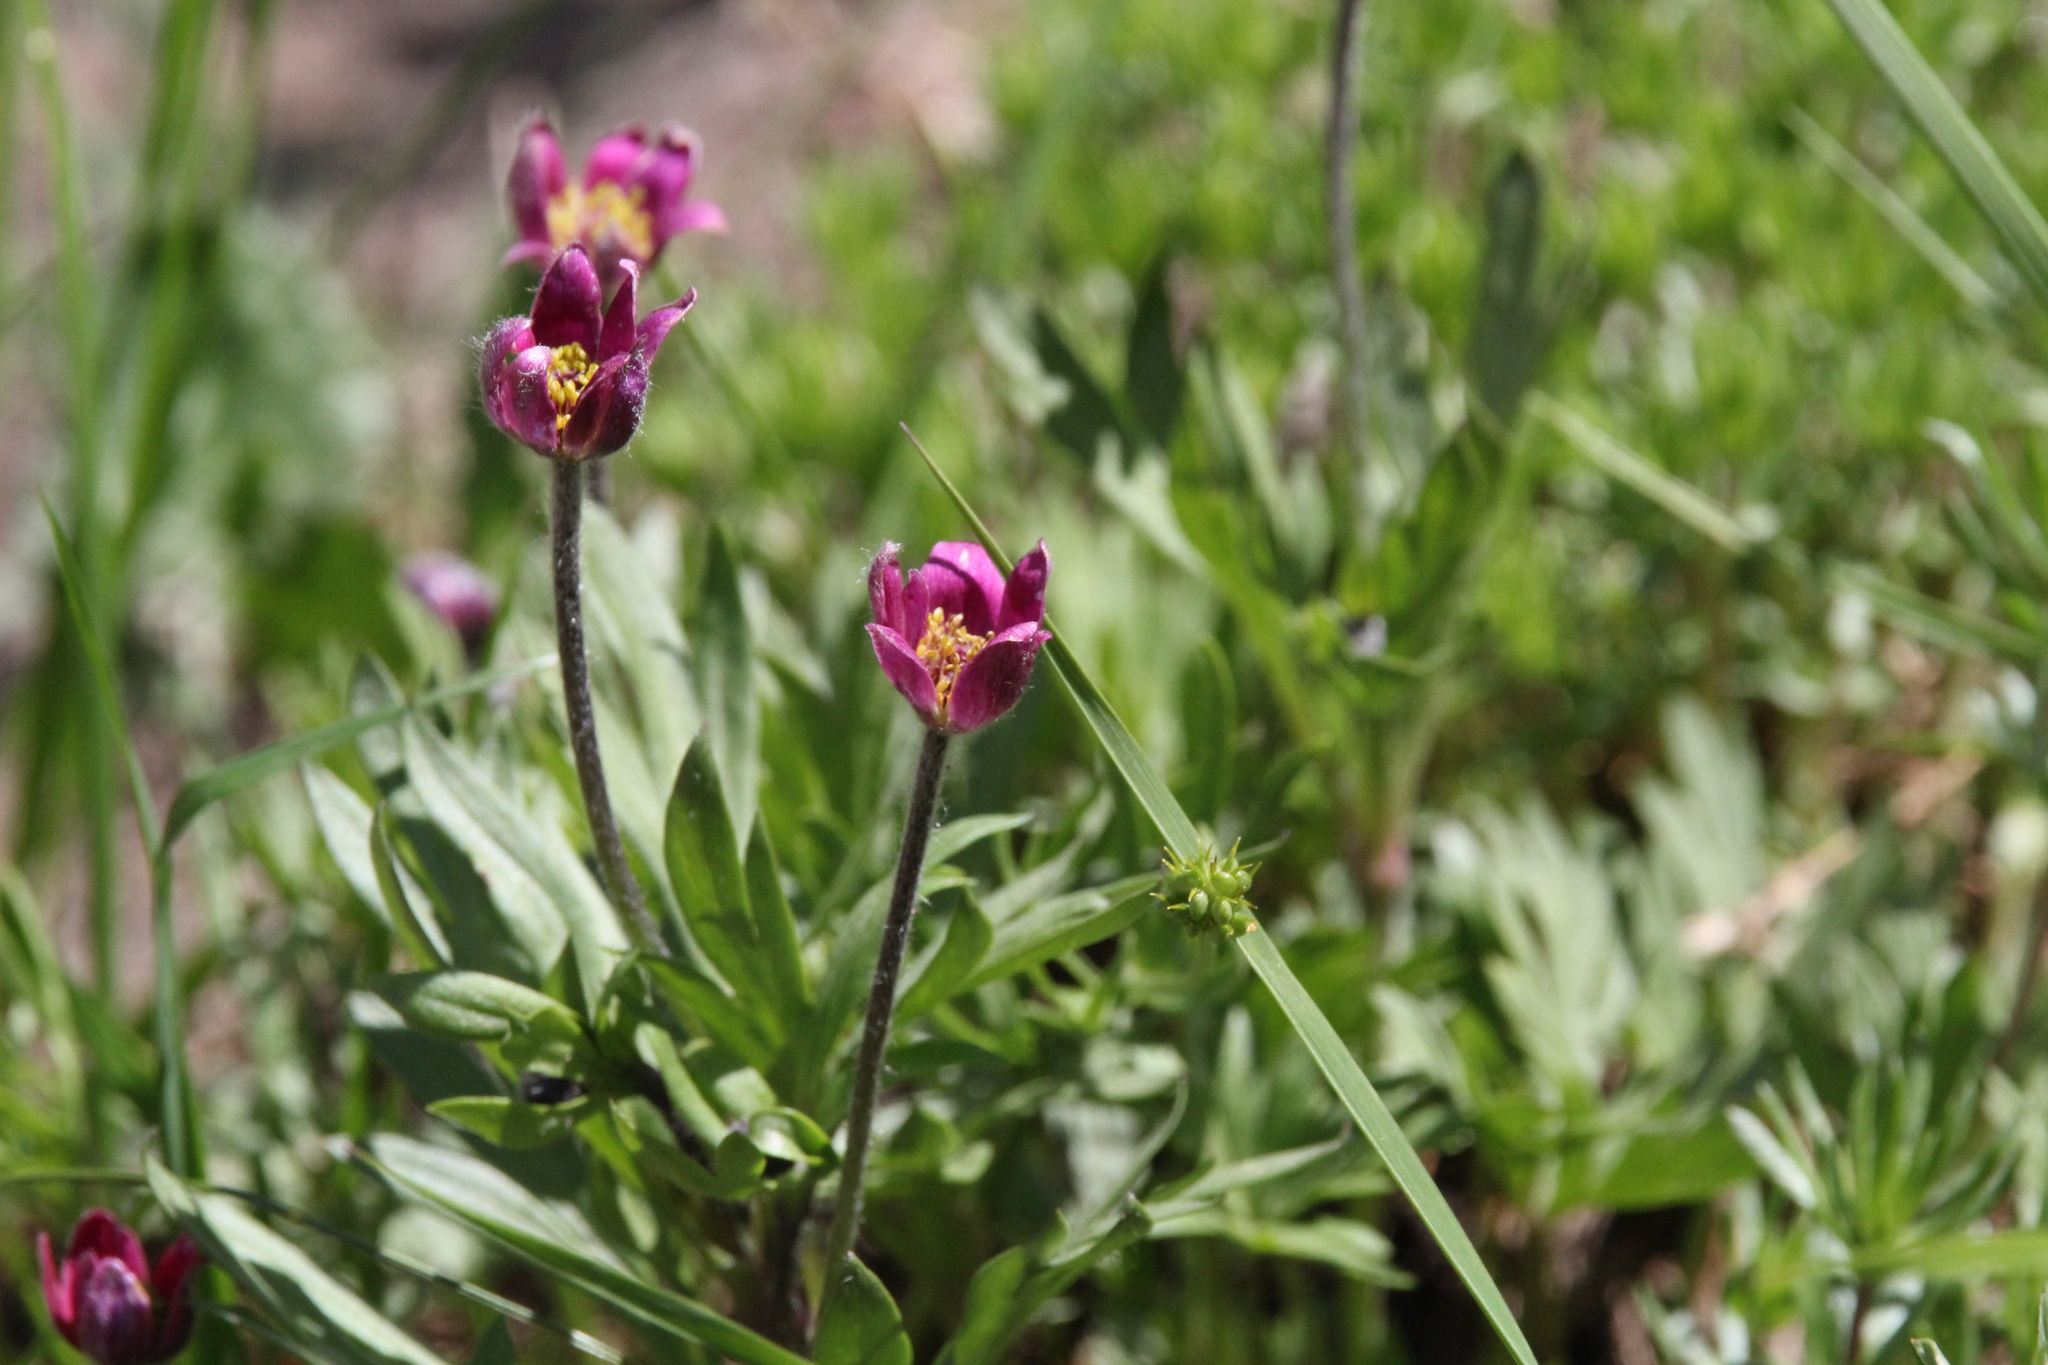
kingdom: Plantae
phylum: Tracheophyta
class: Magnoliopsida
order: Ranunculales
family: Ranunculaceae
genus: Anemone
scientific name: Anemone multifida
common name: Bird's-foot anemone
